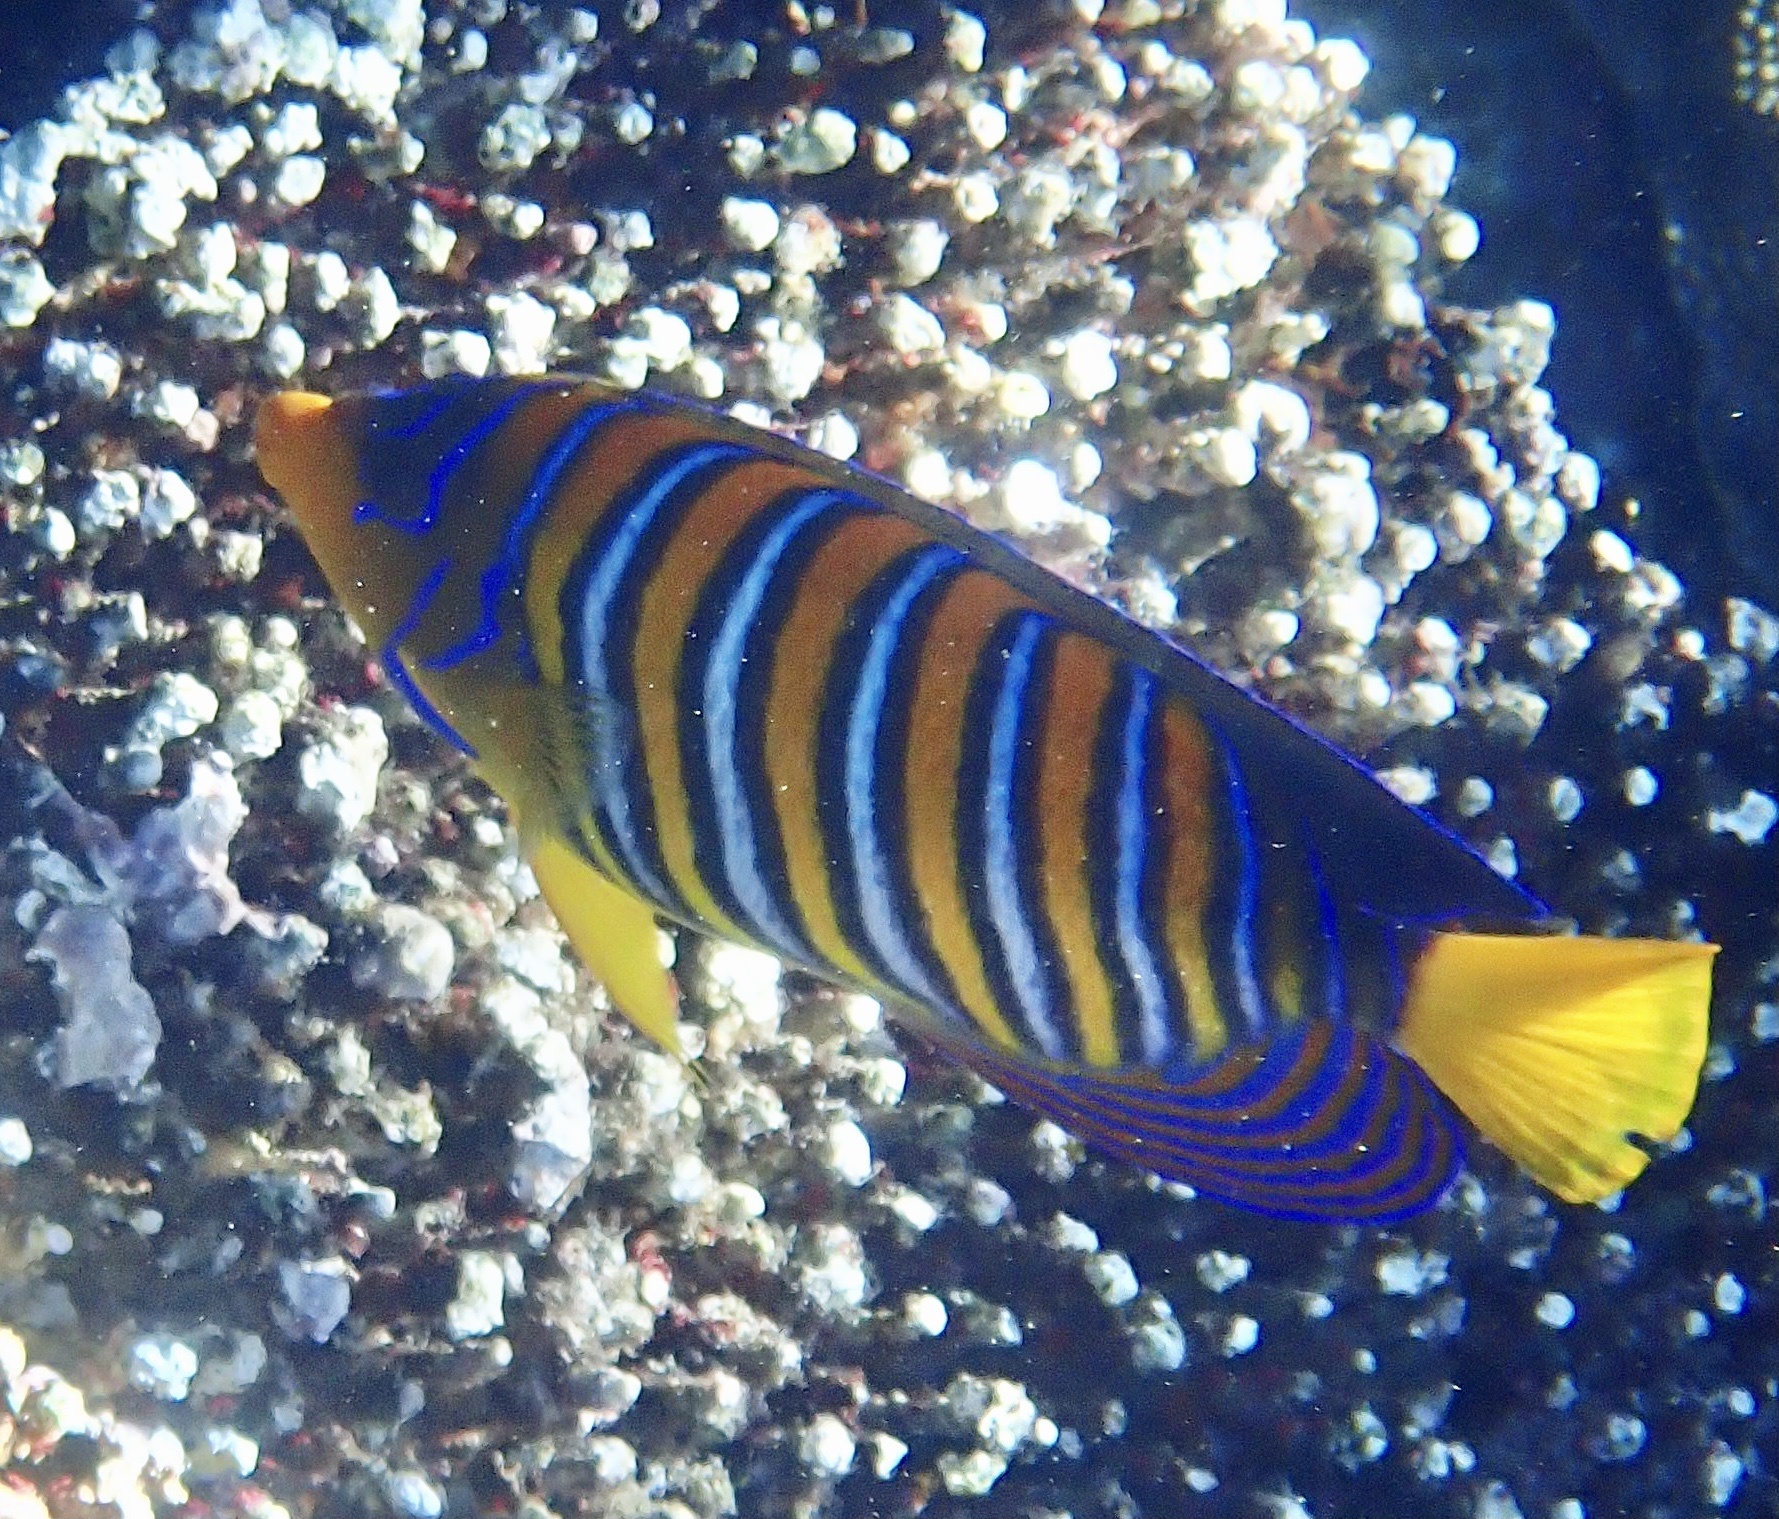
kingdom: Animalia
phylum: Chordata
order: Perciformes
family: Pomacanthidae
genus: Pygoplites
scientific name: Pygoplites diacanthus
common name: Regal angelfish
